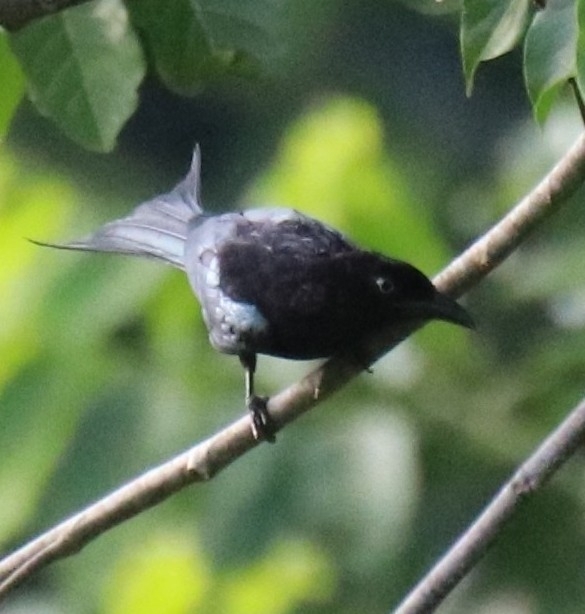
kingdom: Animalia
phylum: Chordata
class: Aves
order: Passeriformes
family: Dicruridae
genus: Dicrurus
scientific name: Dicrurus montanus
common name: Sulawesi drongo
